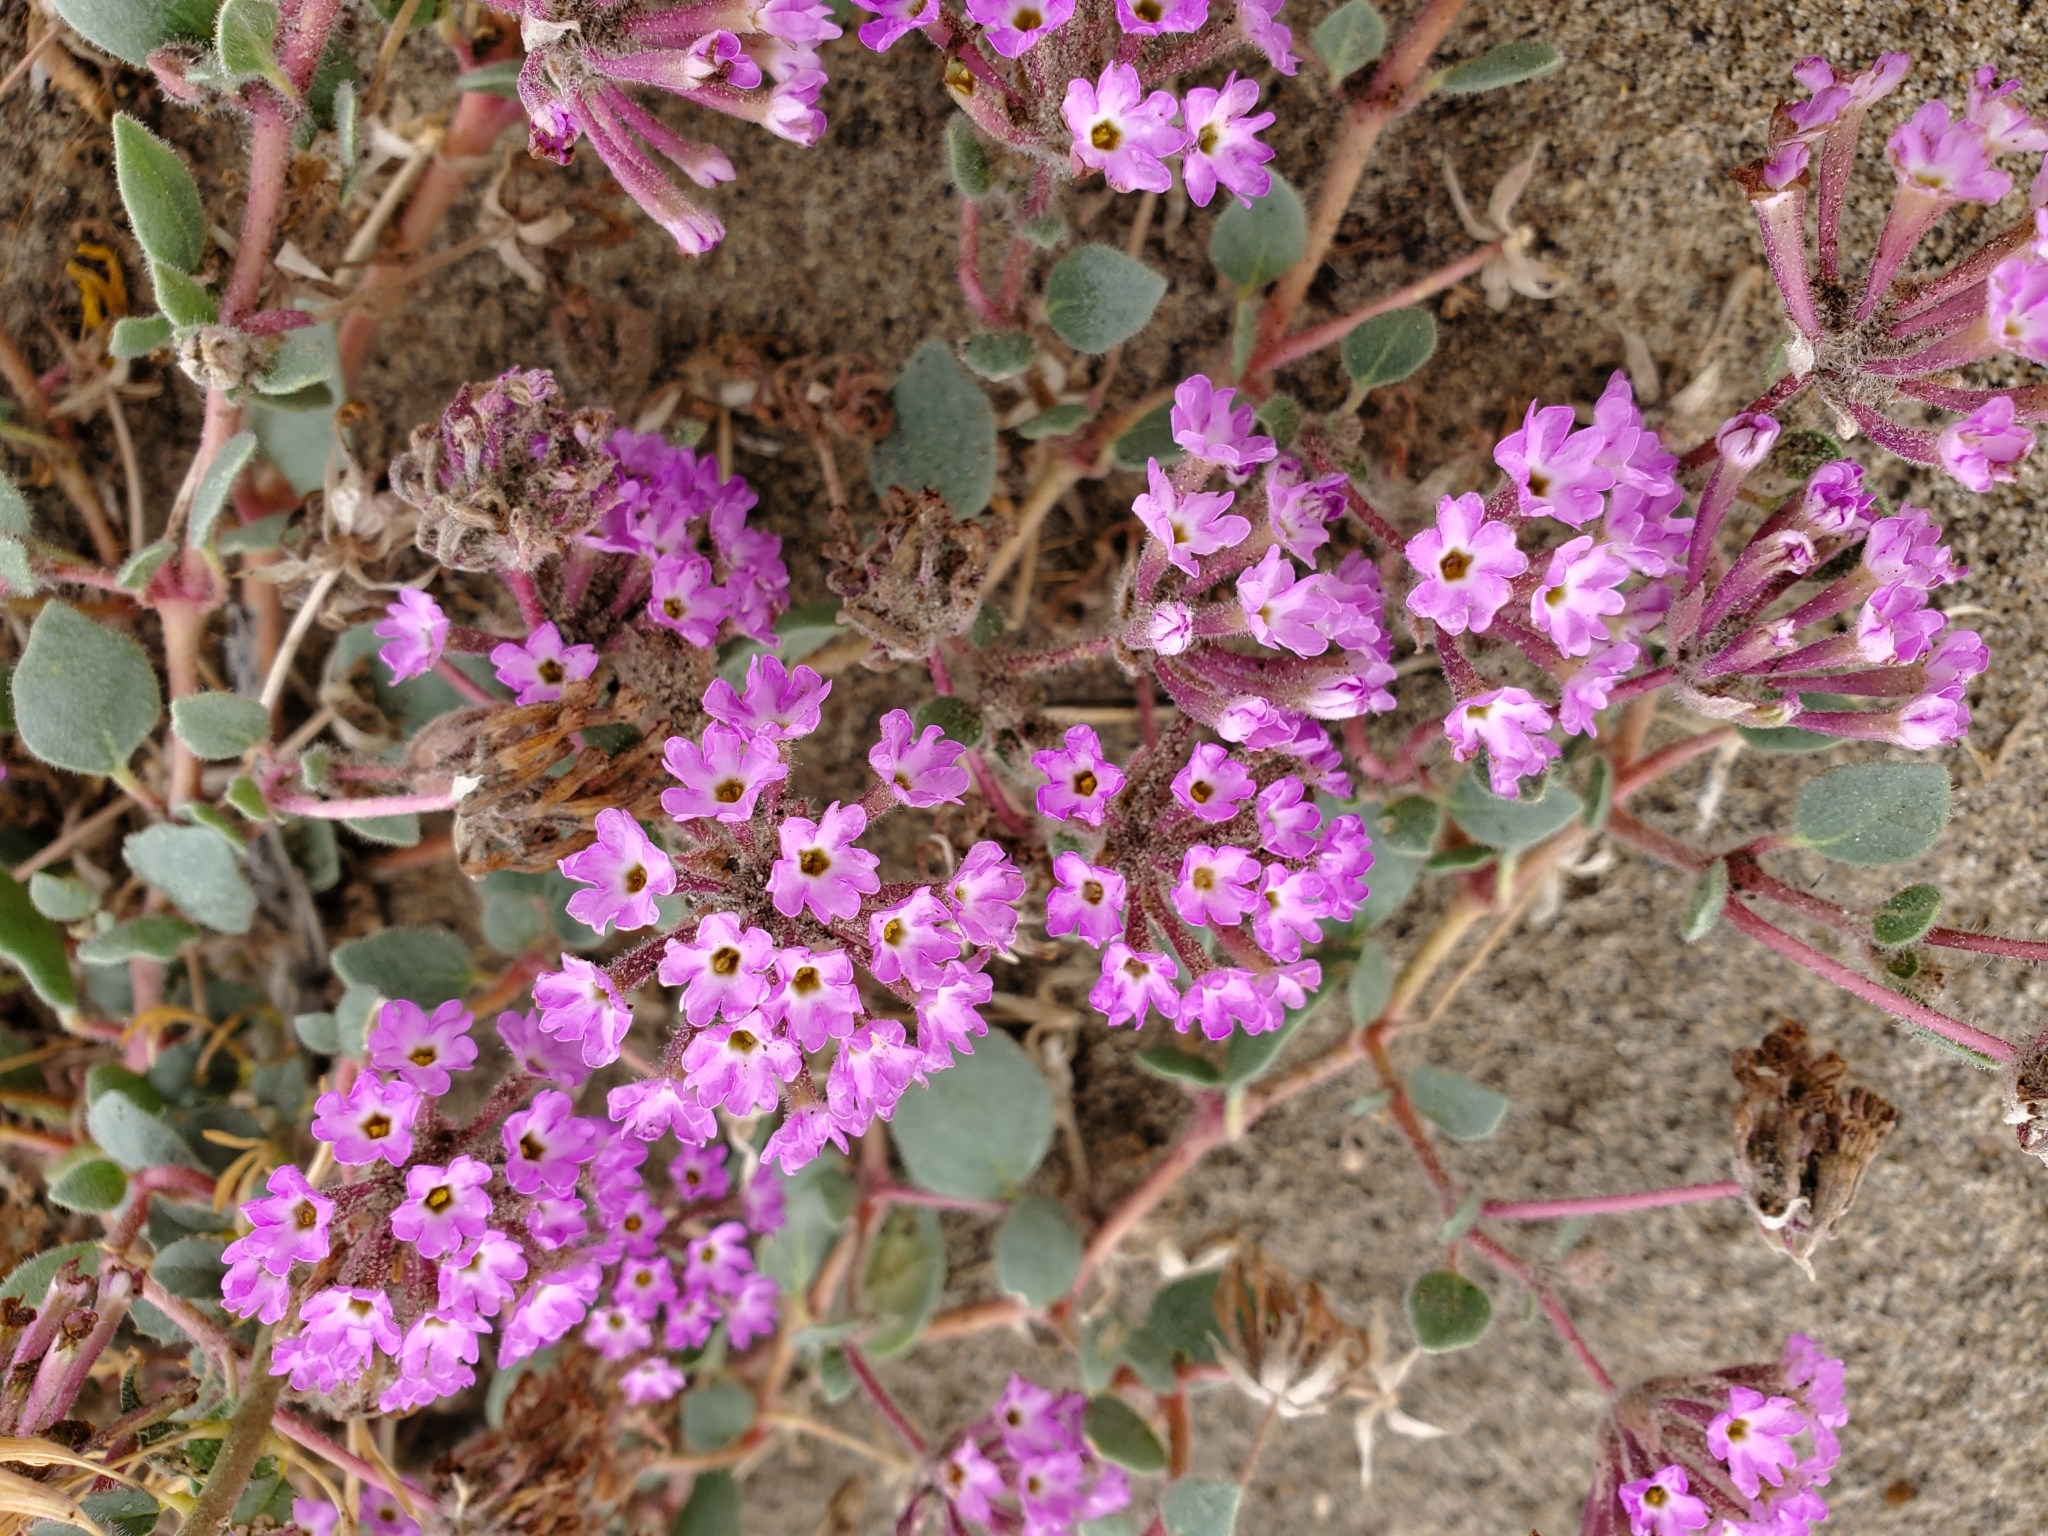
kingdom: Plantae
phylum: Tracheophyta
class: Magnoliopsida
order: Caryophyllales
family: Nyctaginaceae
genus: Abronia
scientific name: Abronia villosa
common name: Desert sand-verbena
